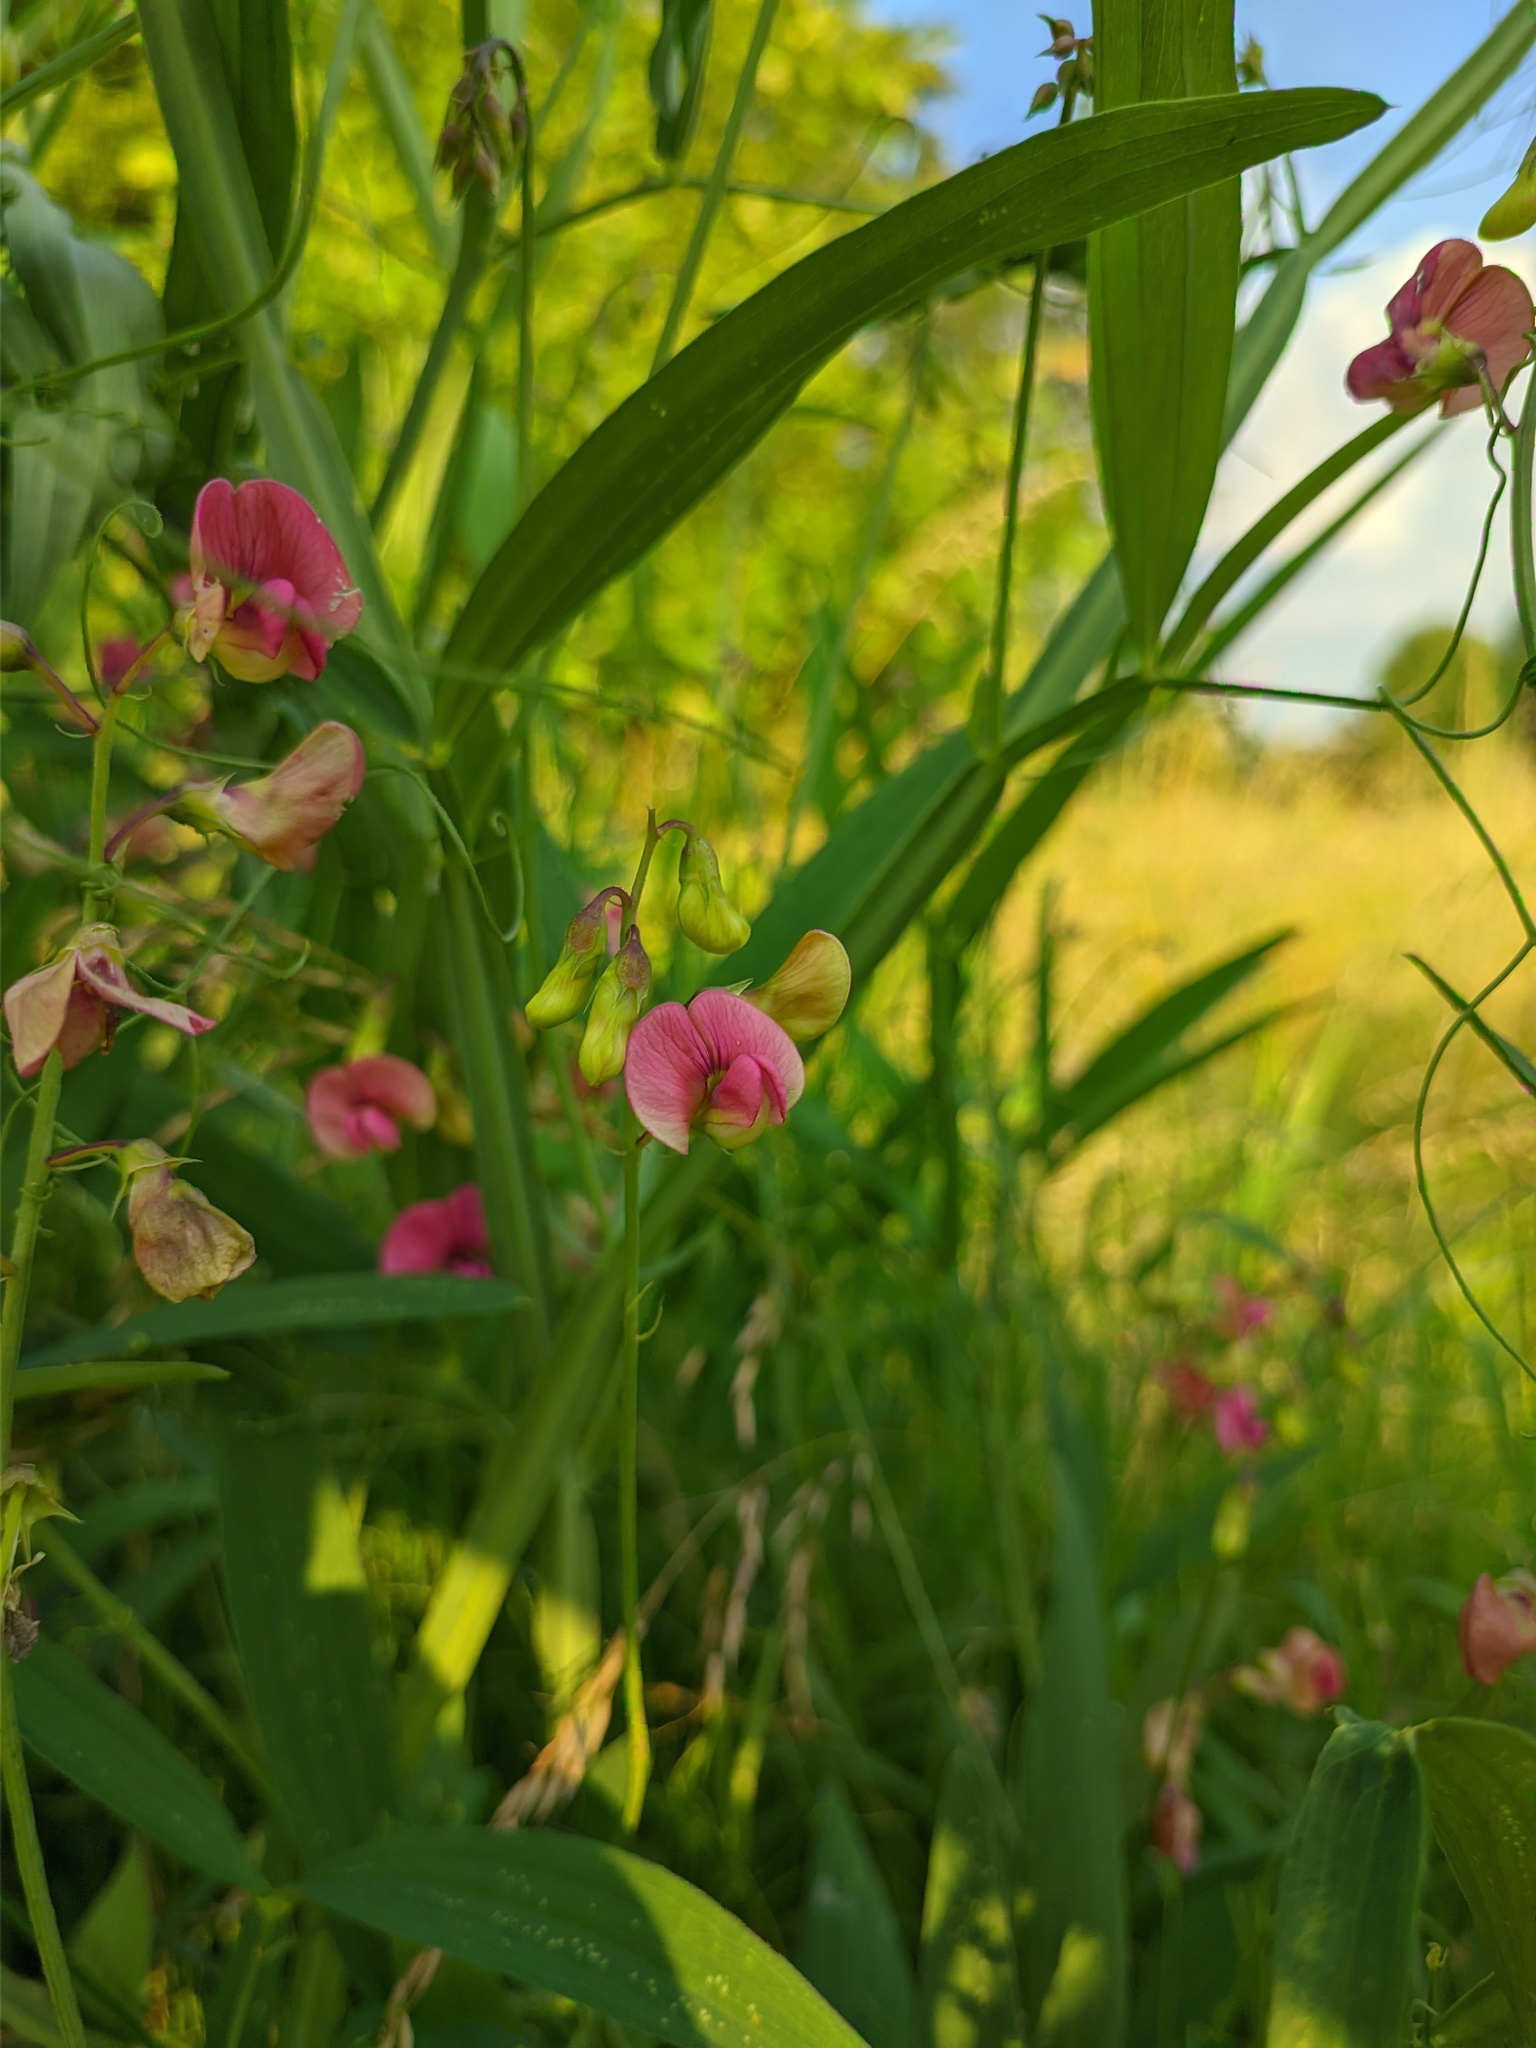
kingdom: Plantae
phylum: Tracheophyta
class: Magnoliopsida
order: Fabales
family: Fabaceae
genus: Lathyrus
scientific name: Lathyrus sylvestris
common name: Flat pea
